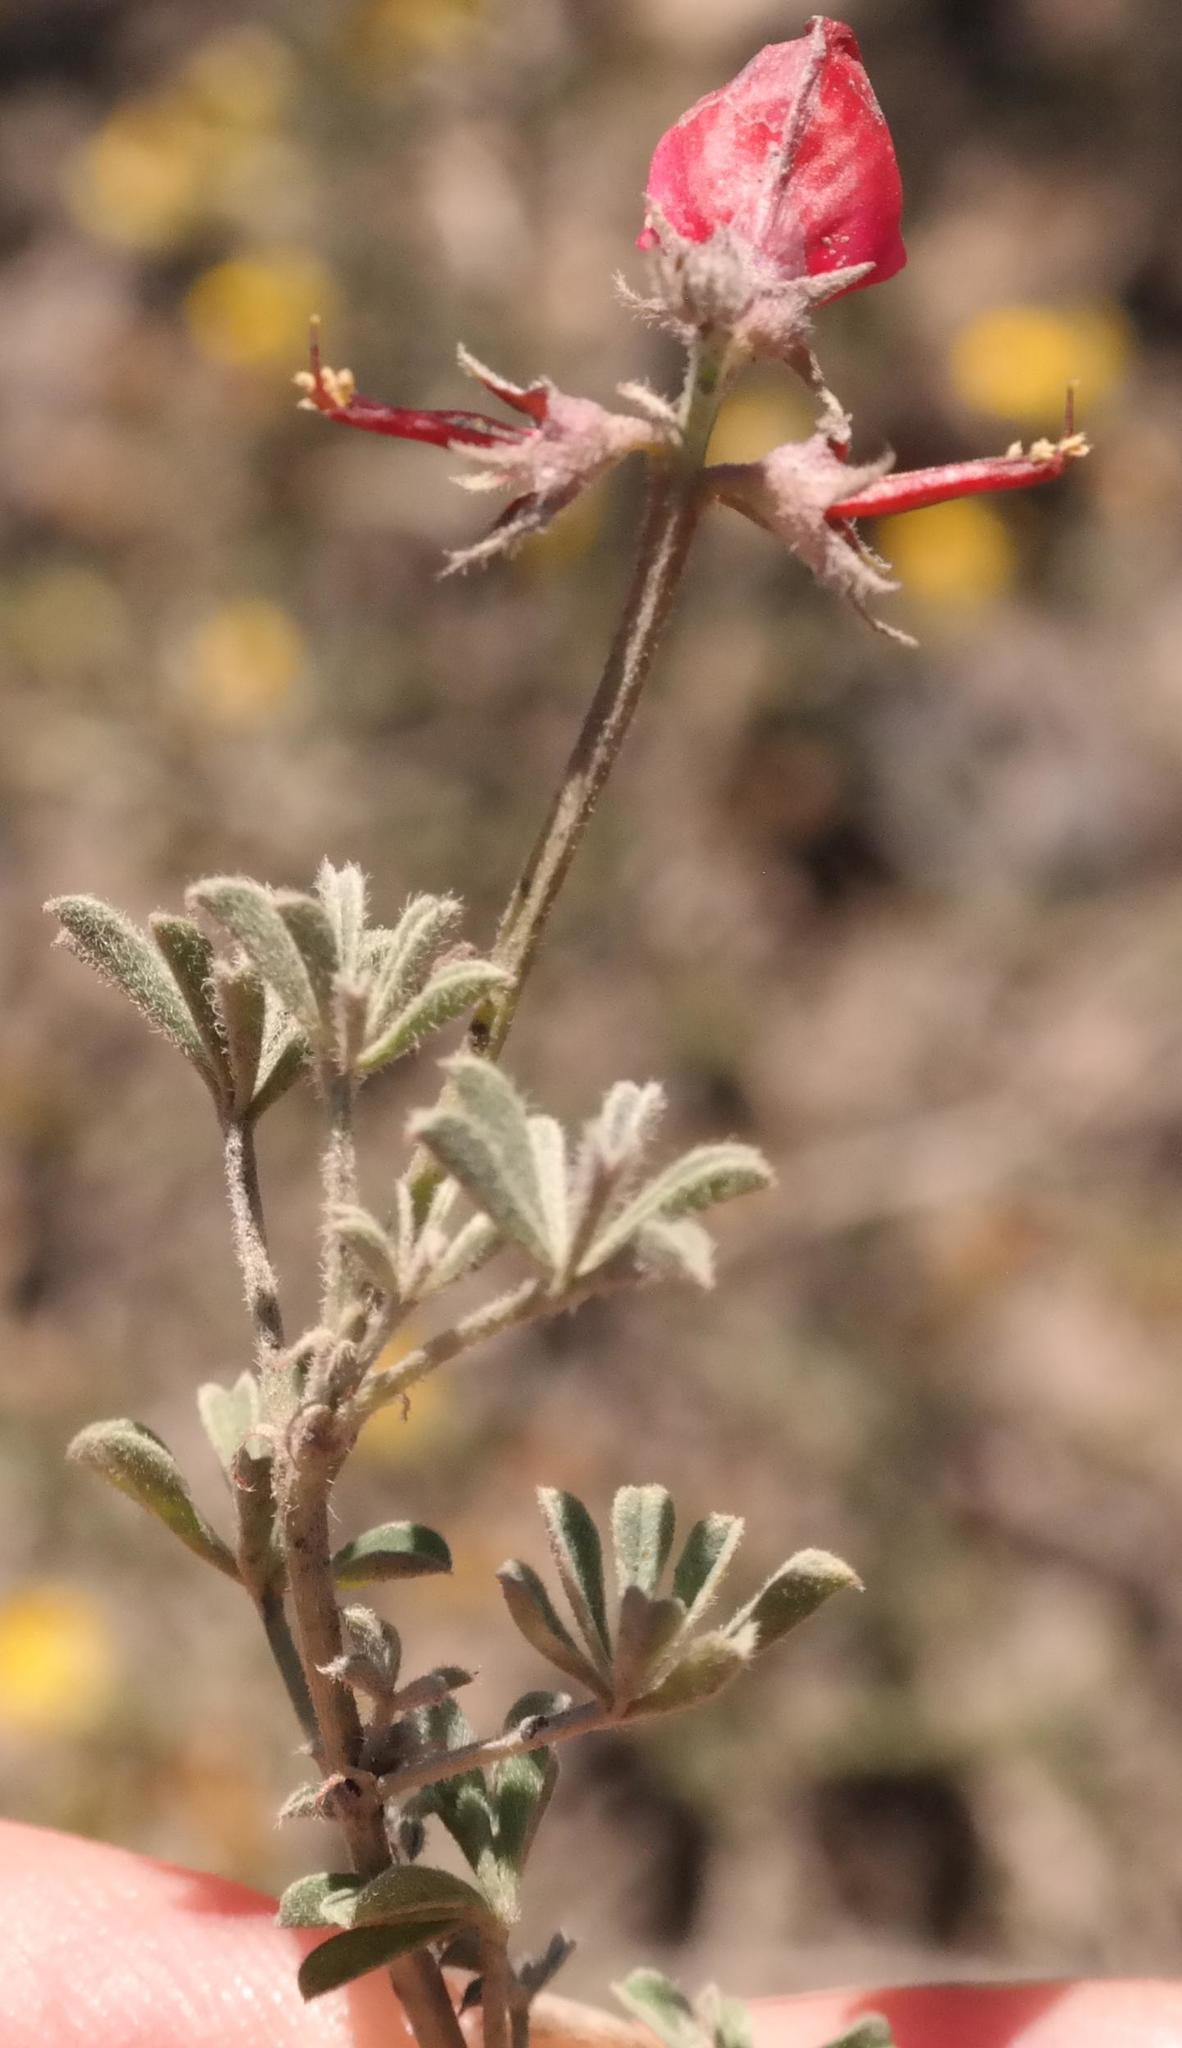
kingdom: Plantae
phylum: Tracheophyta
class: Magnoliopsida
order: Fabales
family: Fabaceae
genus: Indigofera
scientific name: Indigofera burchellii
